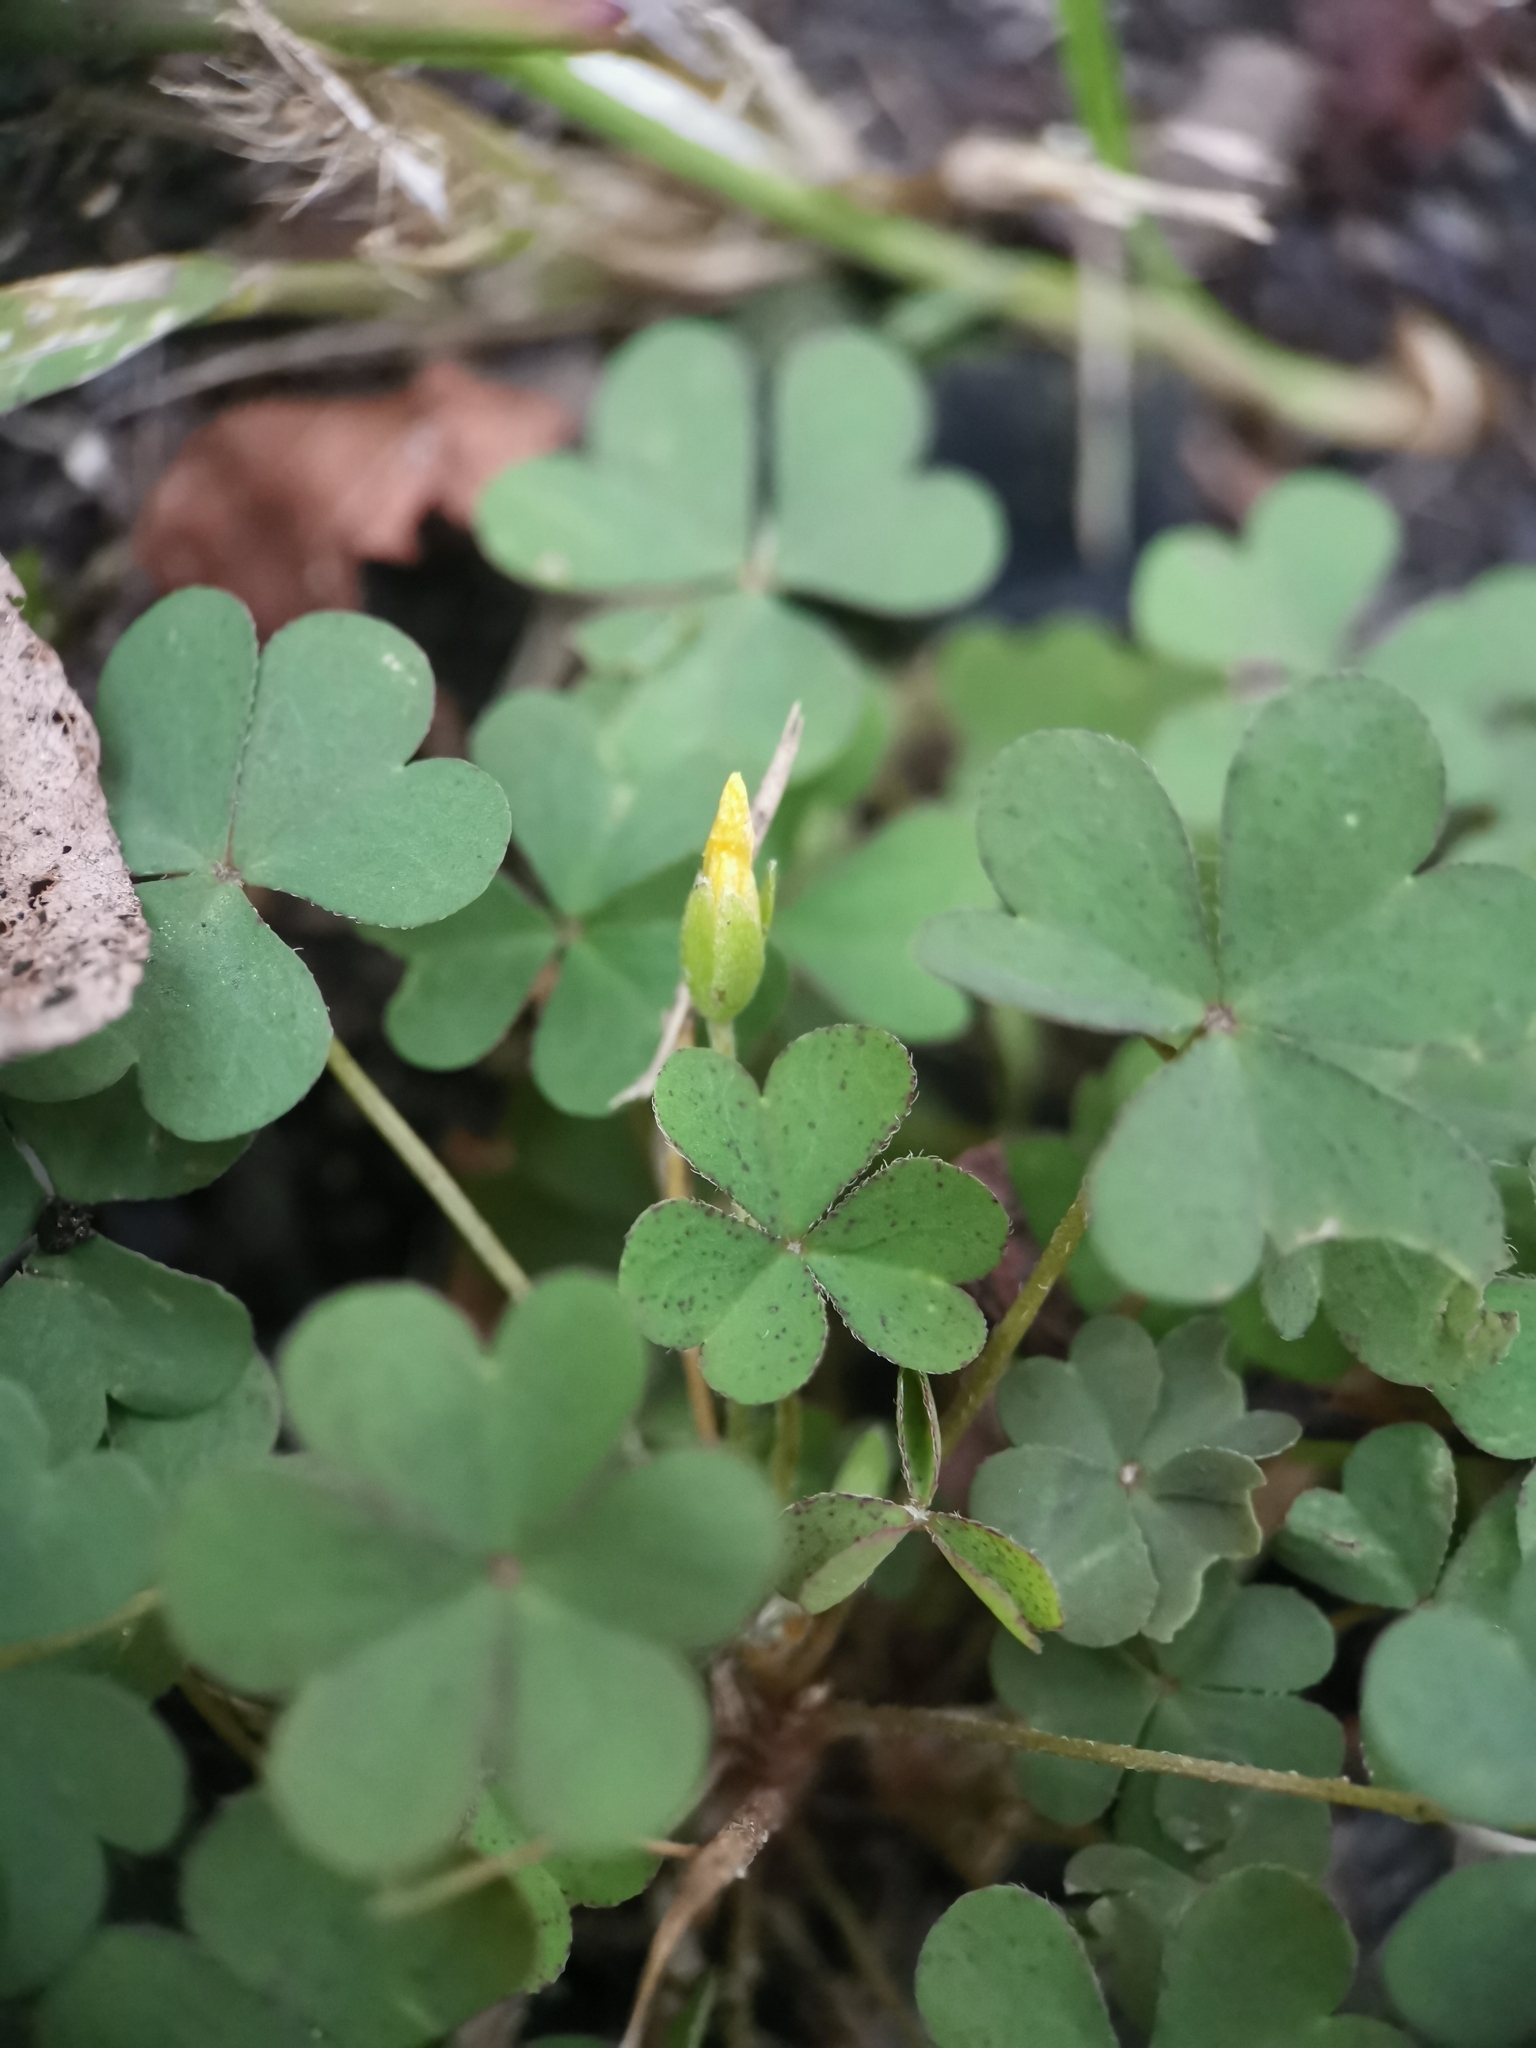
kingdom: Plantae
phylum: Tracheophyta
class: Magnoliopsida
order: Oxalidales
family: Oxalidaceae
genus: Oxalis
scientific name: Oxalis corniculata
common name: Procumbent yellow-sorrel
